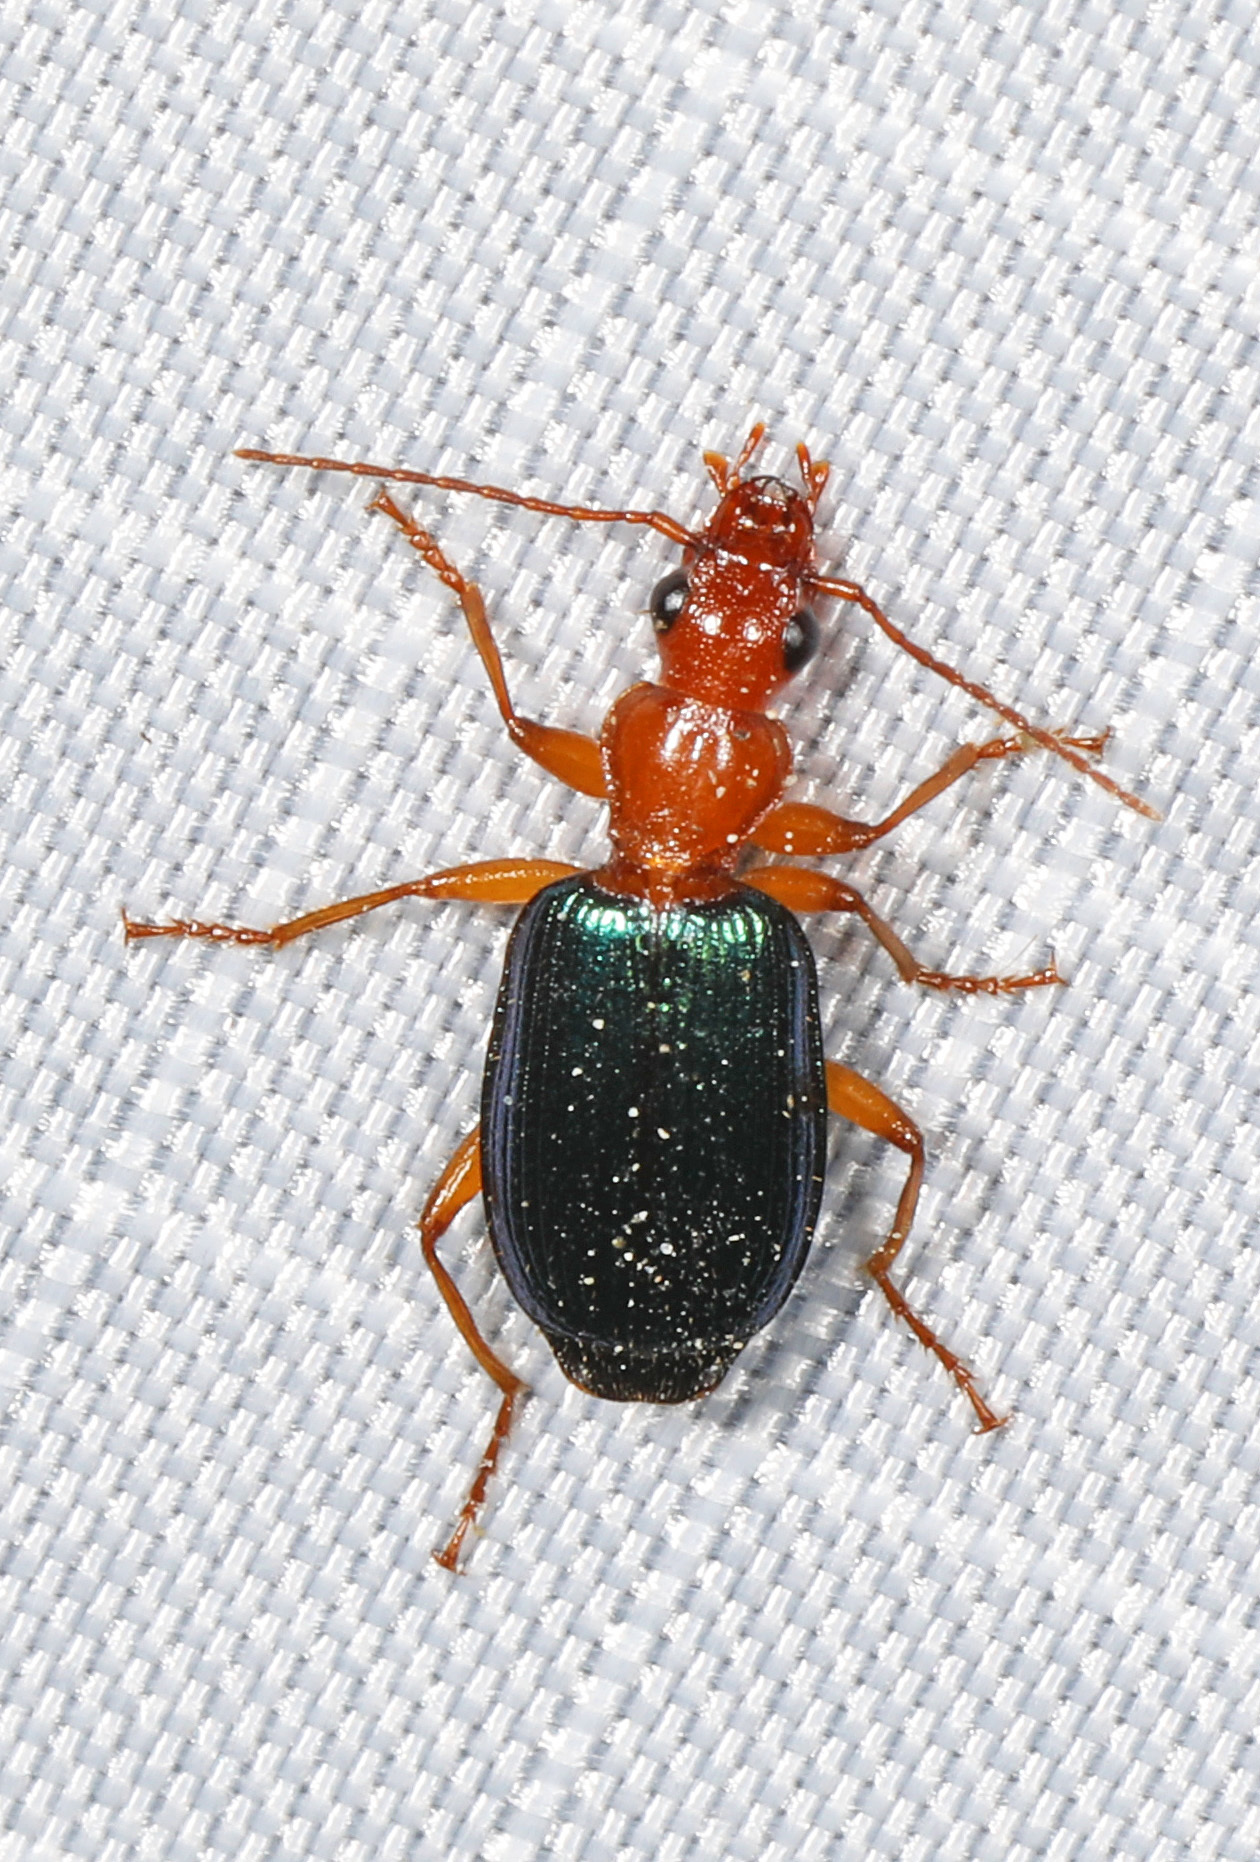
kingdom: Animalia
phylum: Arthropoda
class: Insecta
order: Coleoptera
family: Carabidae
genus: Brachinus
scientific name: Brachinus
